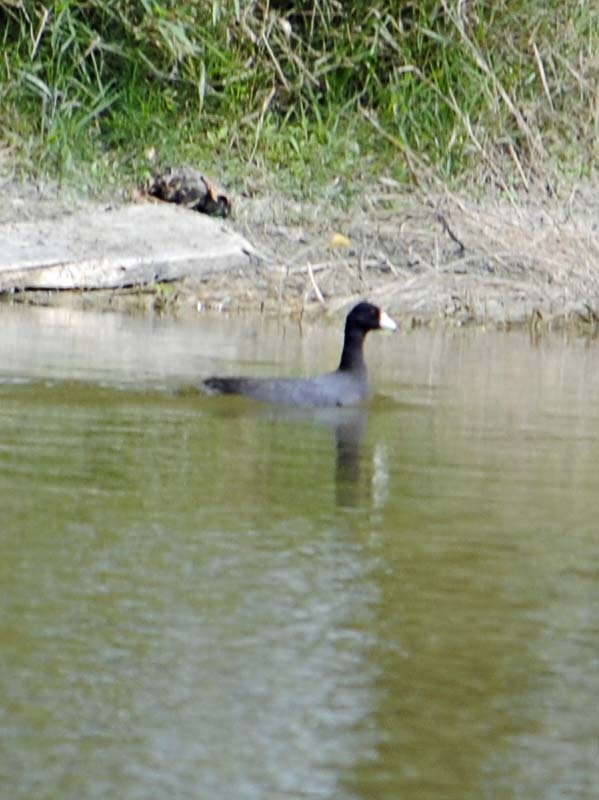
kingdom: Animalia
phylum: Chordata
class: Aves
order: Gruiformes
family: Rallidae
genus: Fulica
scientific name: Fulica americana
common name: American coot
